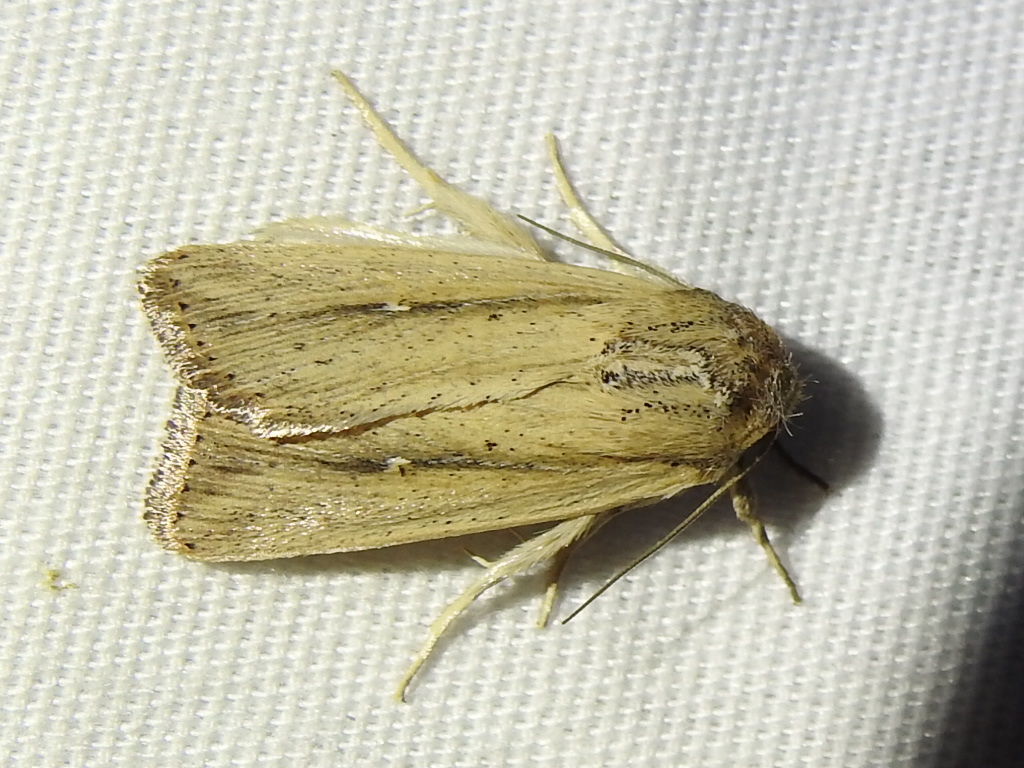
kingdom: Animalia
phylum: Arthropoda
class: Insecta
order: Lepidoptera
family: Noctuidae
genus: Leucania
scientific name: Leucania adjuta
